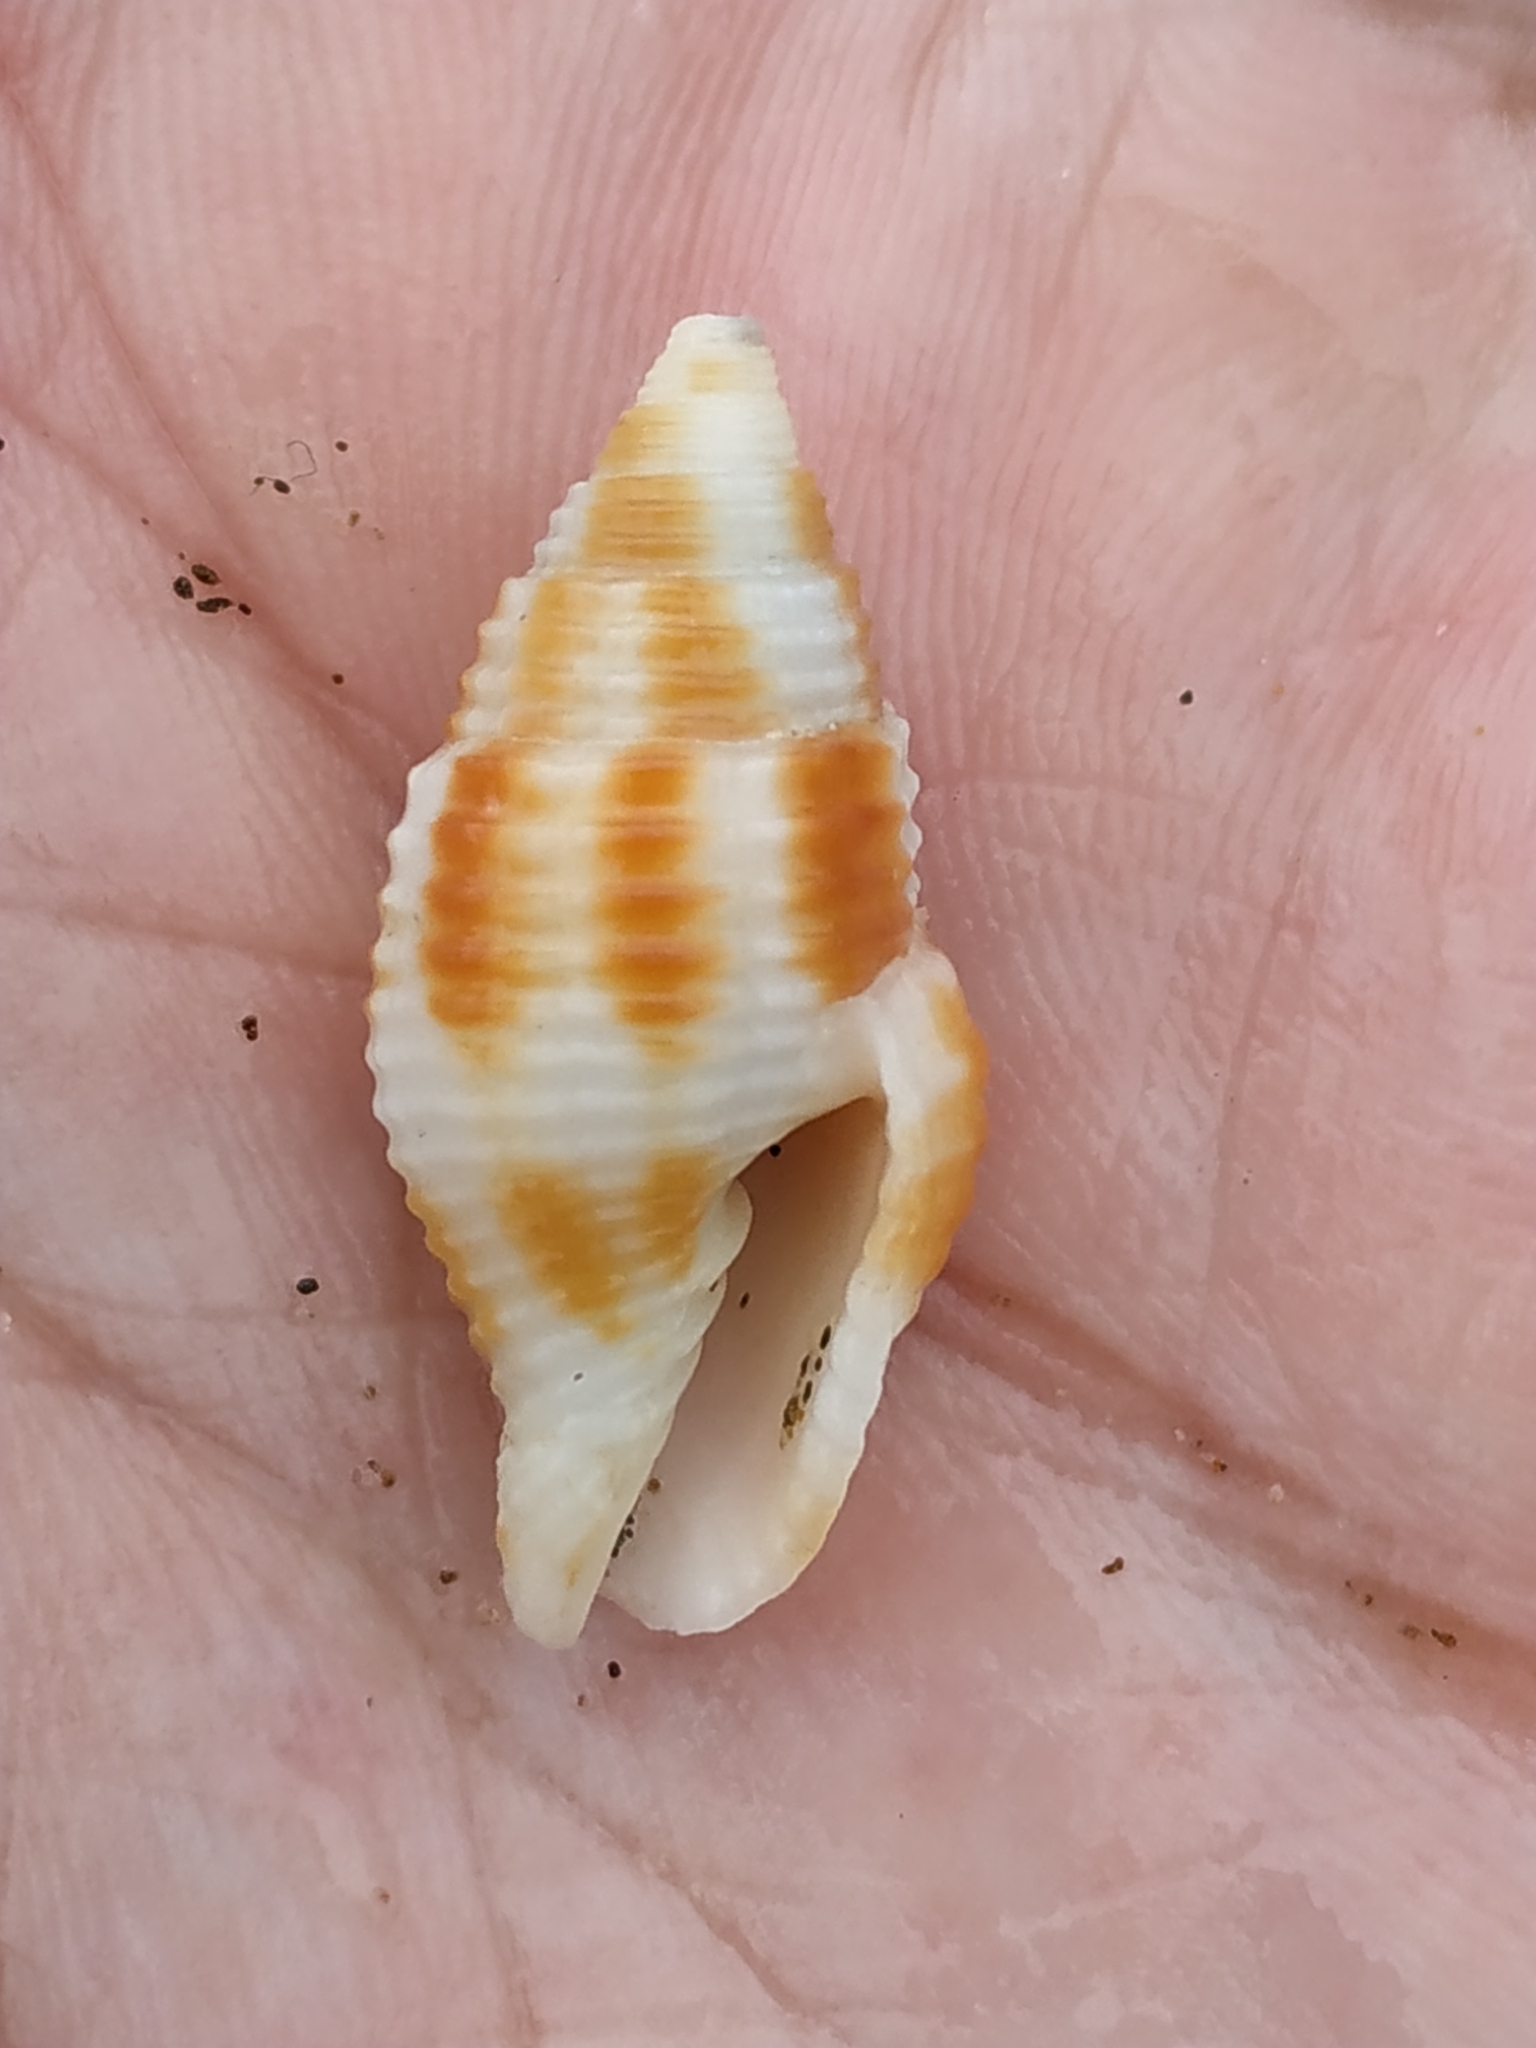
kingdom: Animalia
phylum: Mollusca
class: Gastropoda
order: Neogastropoda
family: Mitridae
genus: Nebularia
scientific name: Nebularia ferruginea
